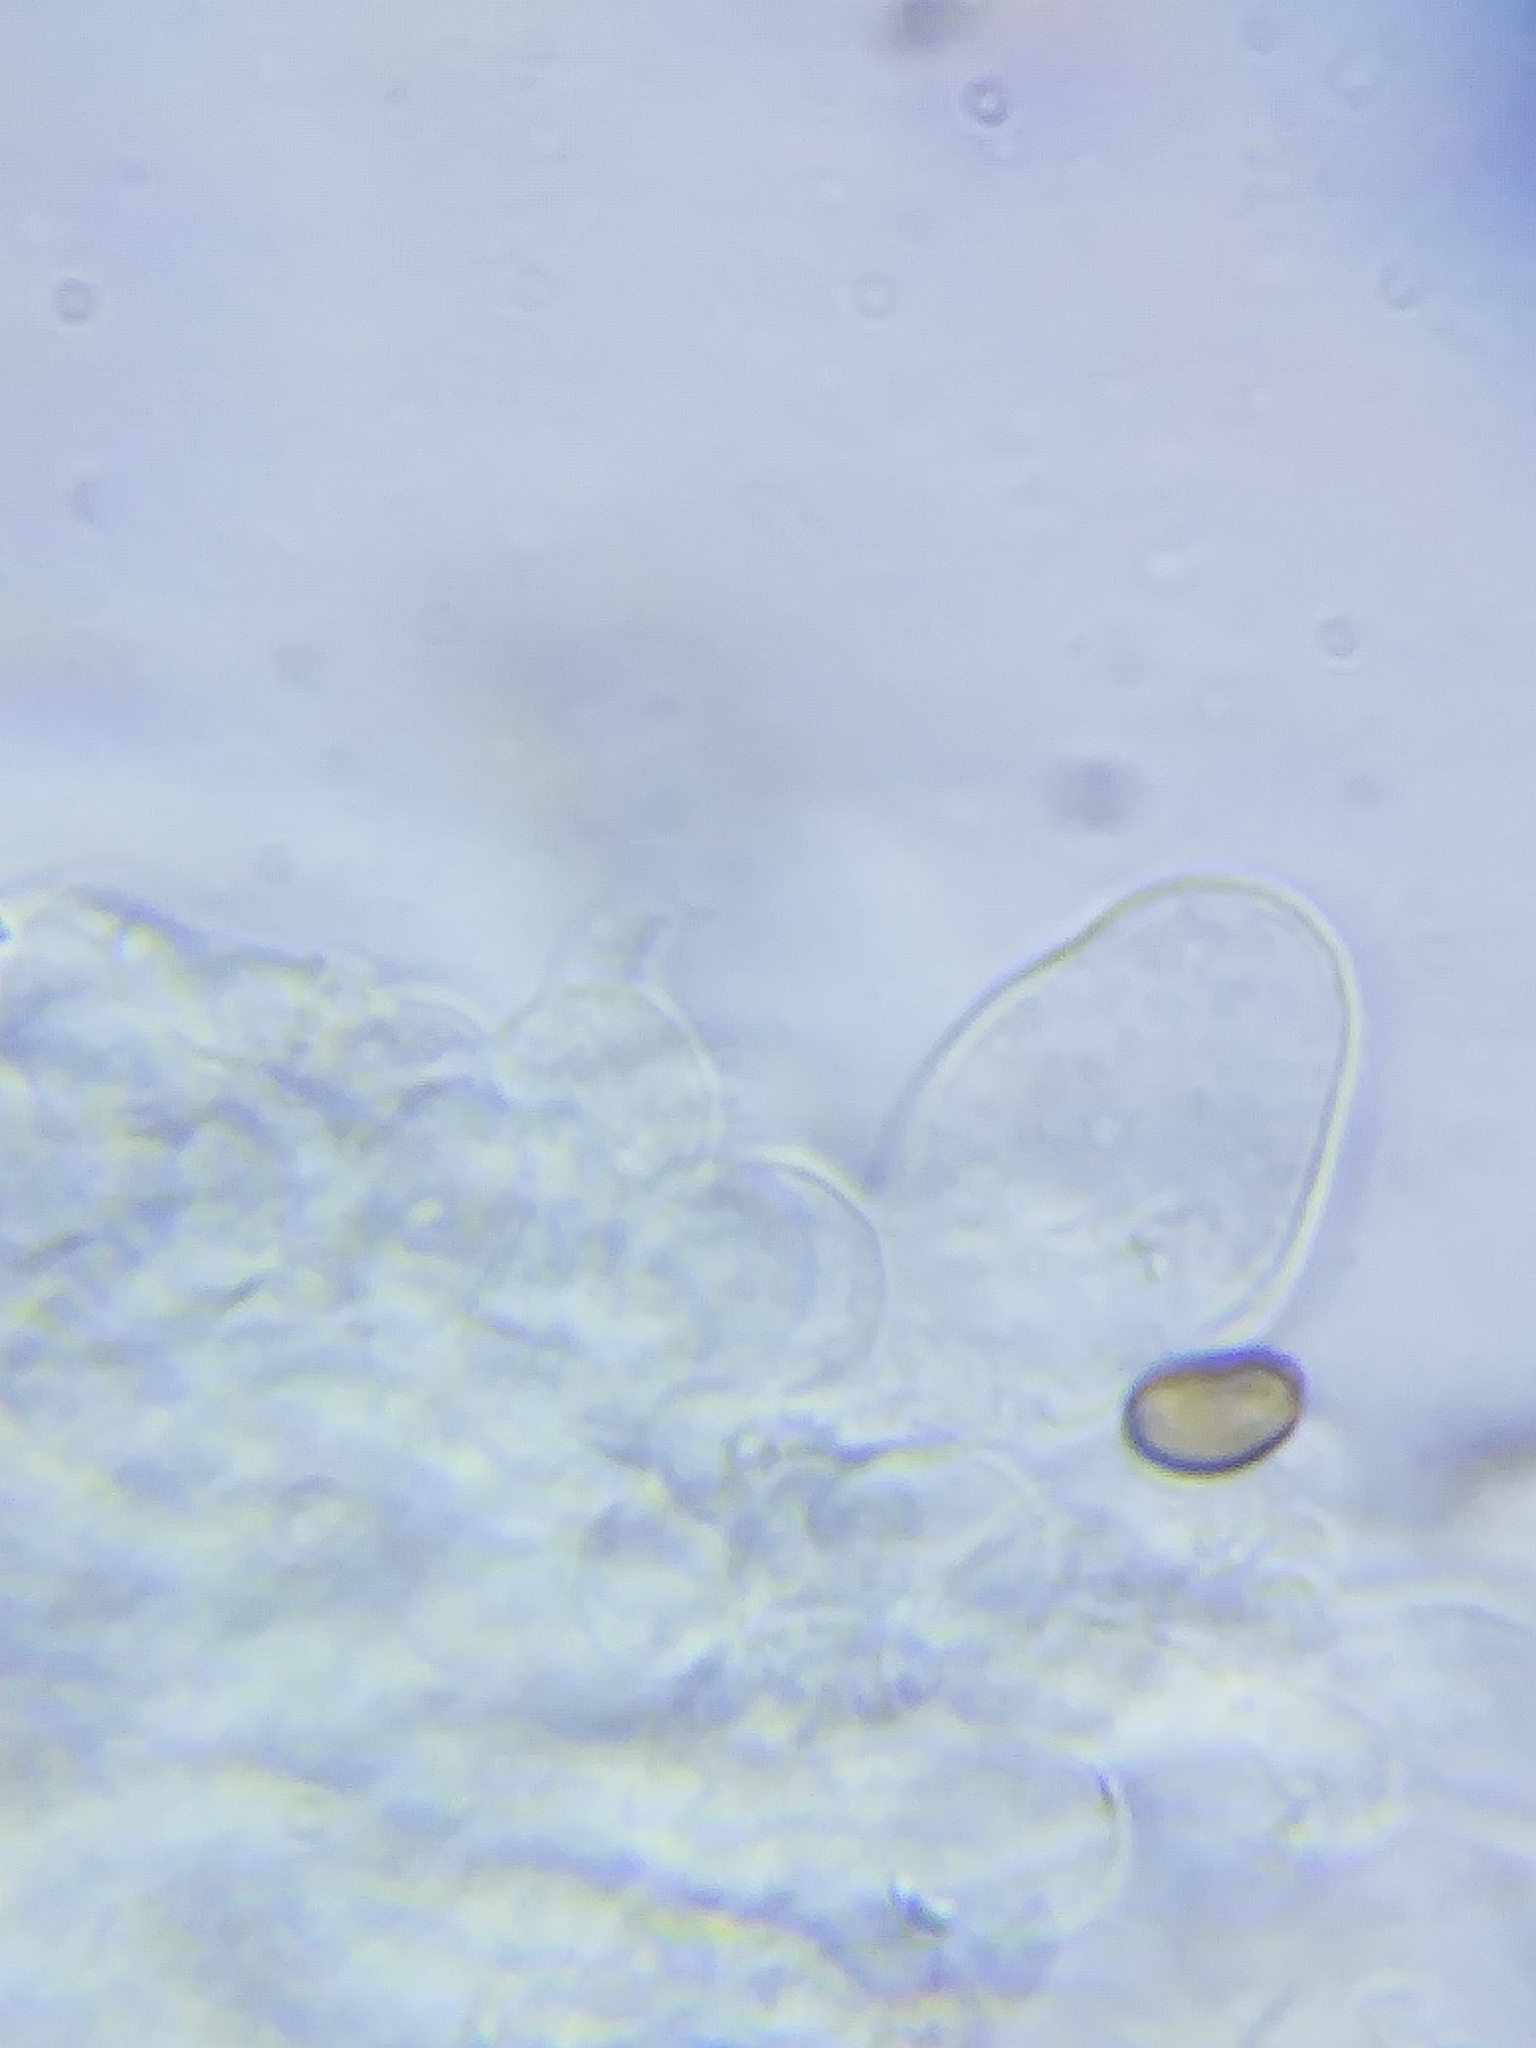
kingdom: Fungi
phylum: Basidiomycota
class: Agaricomycetes
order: Agaricales
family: Psathyrellaceae
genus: Candolleomyces
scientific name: Candolleomyces candolleanus
